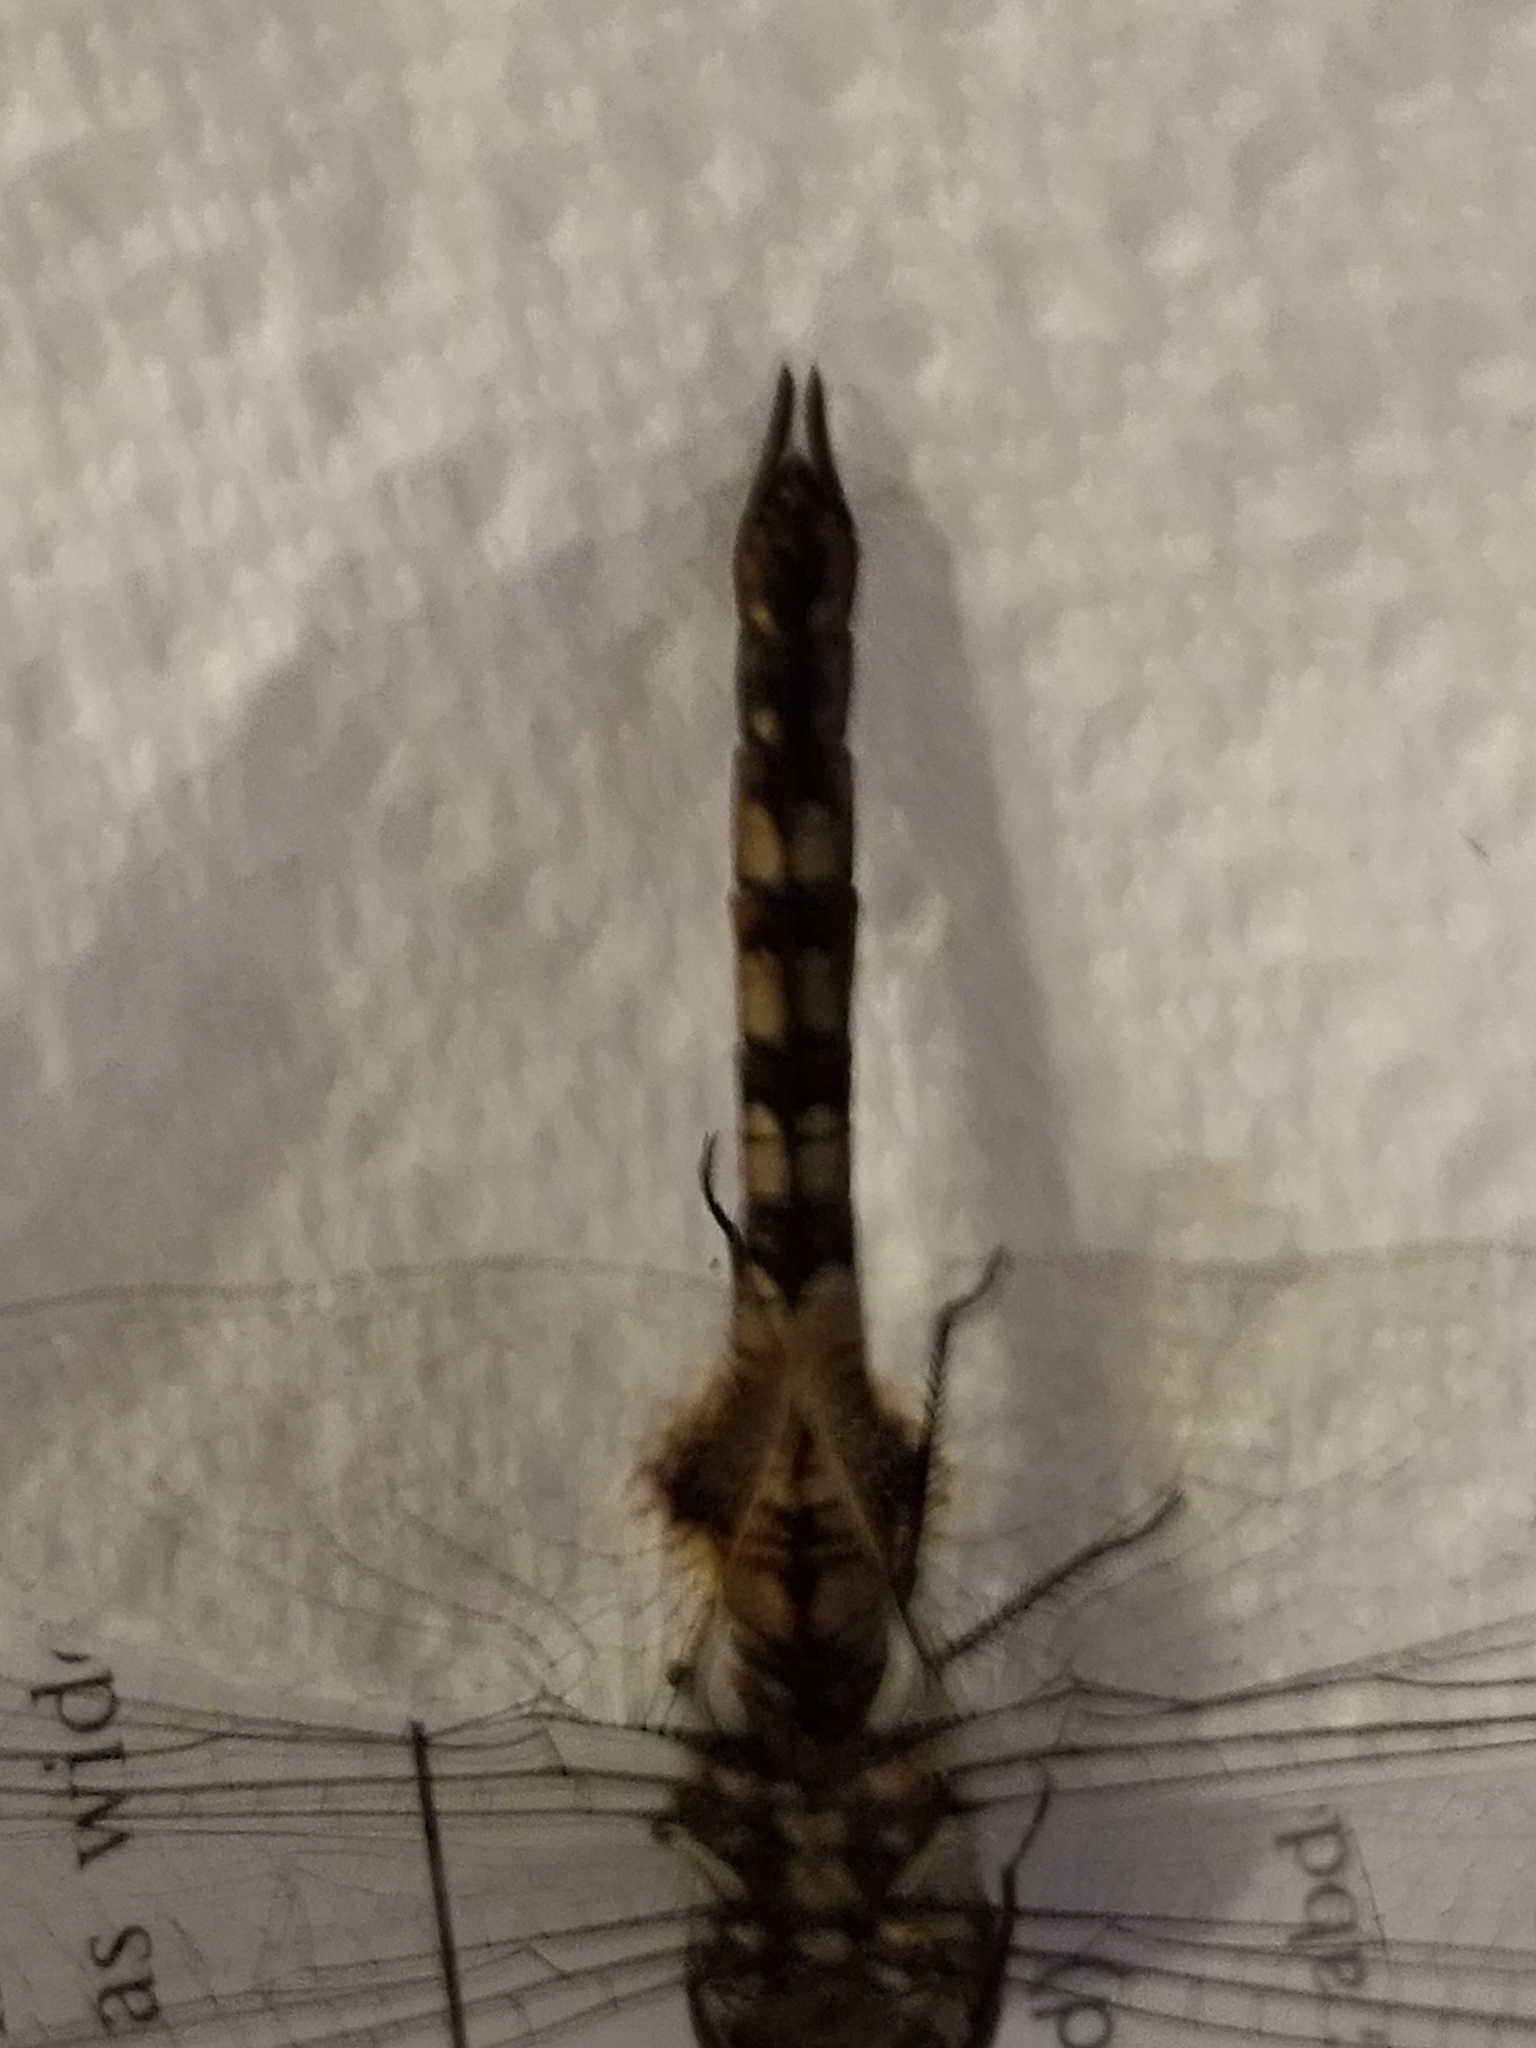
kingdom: Animalia
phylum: Arthropoda
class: Insecta
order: Odonata
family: Libellulidae
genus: Pantala
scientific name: Pantala hymenaea
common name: Spot-winged glider
